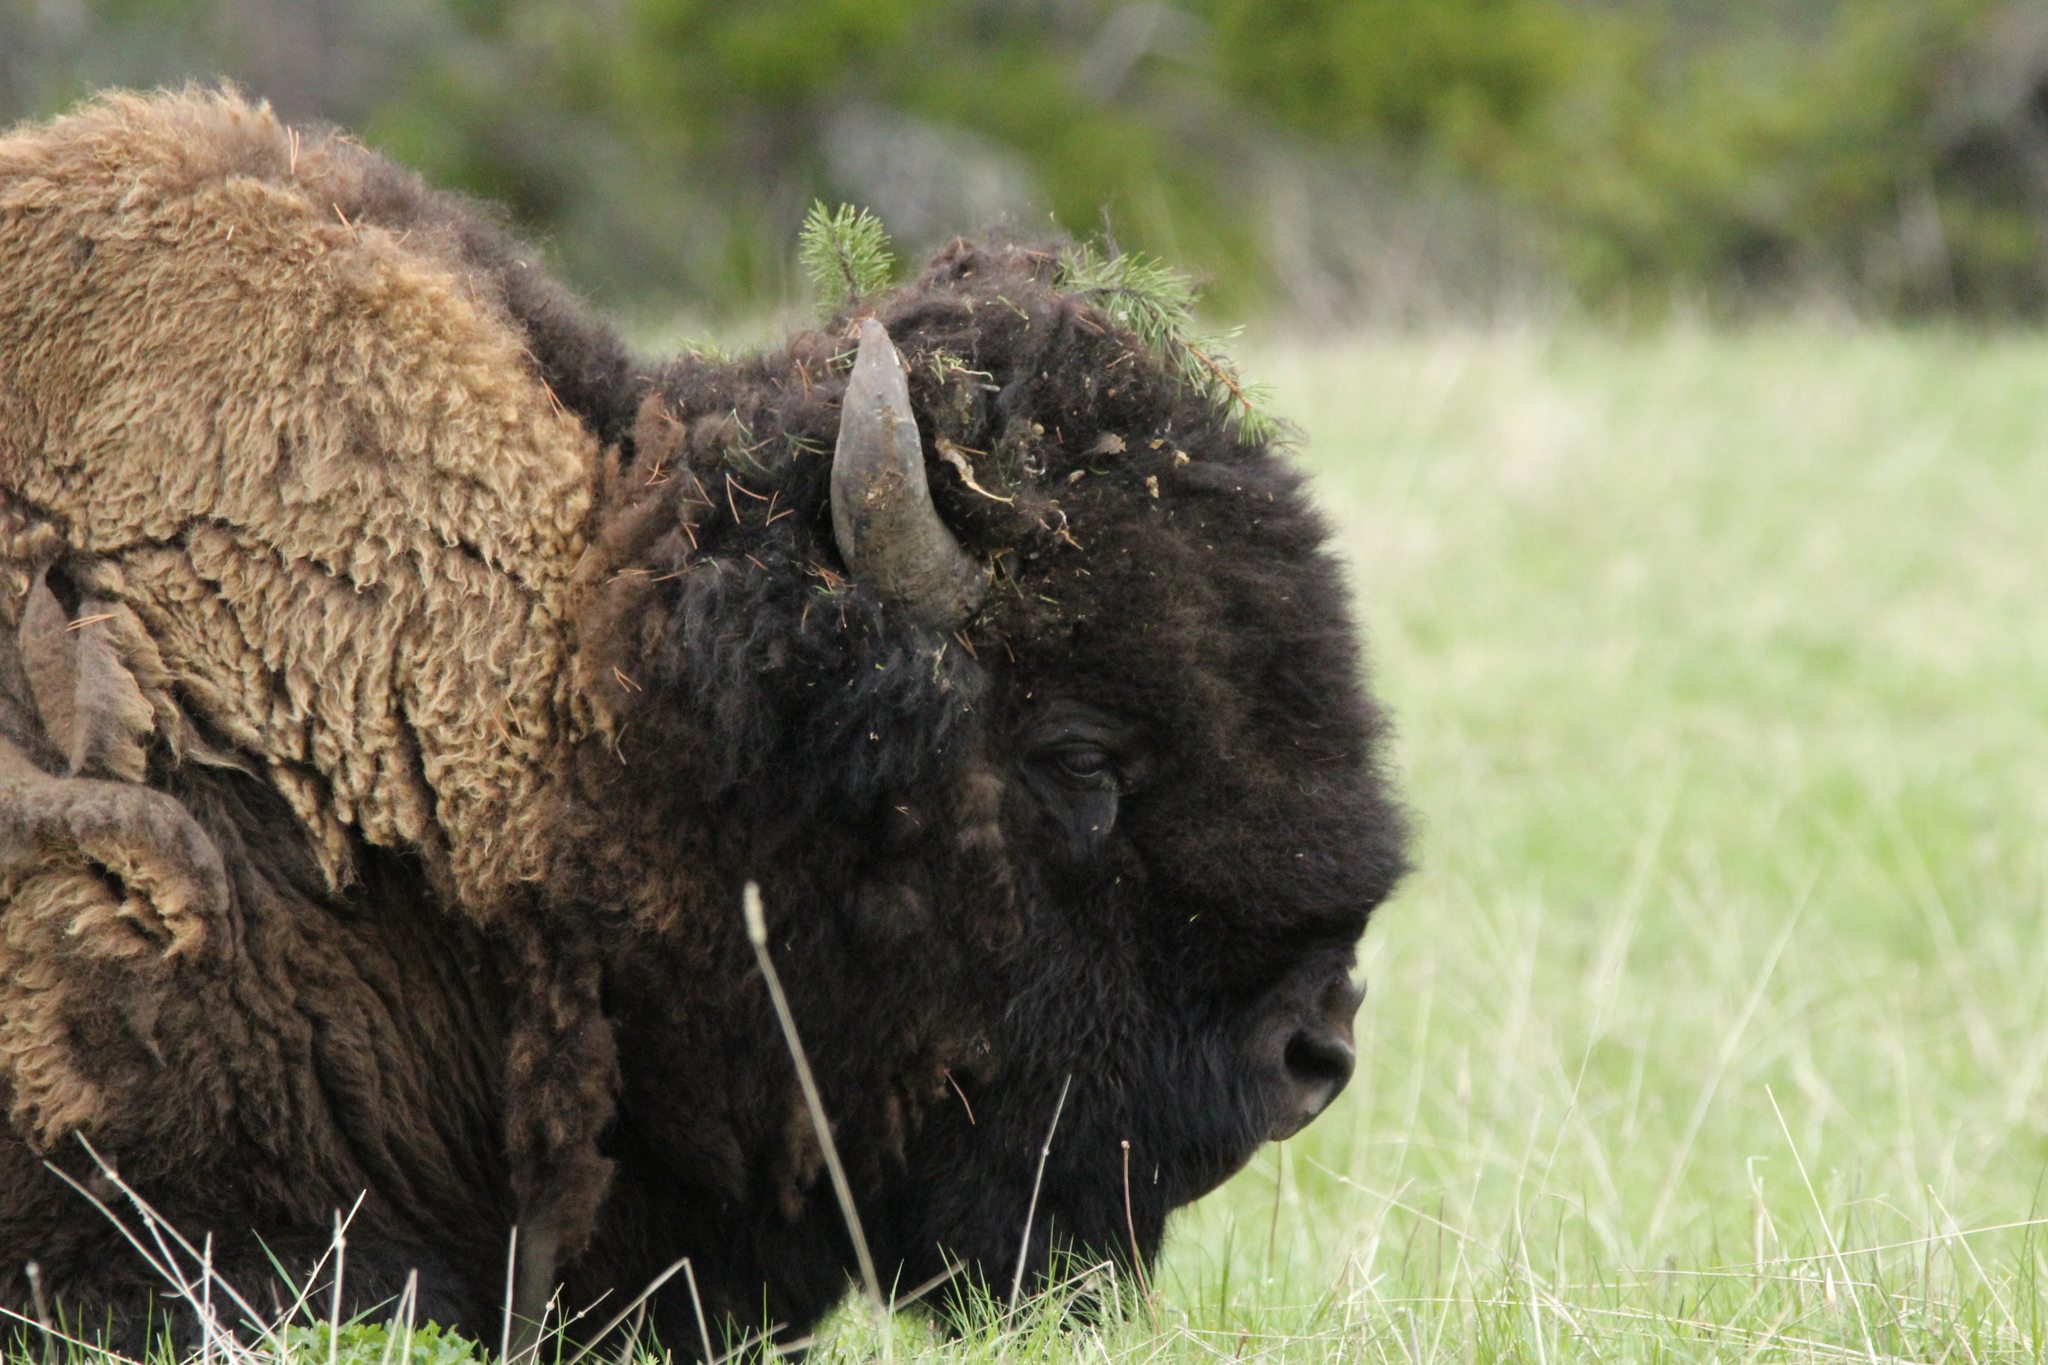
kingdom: Animalia
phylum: Chordata
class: Mammalia
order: Artiodactyla
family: Bovidae
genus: Bison
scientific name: Bison bison
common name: American bison
